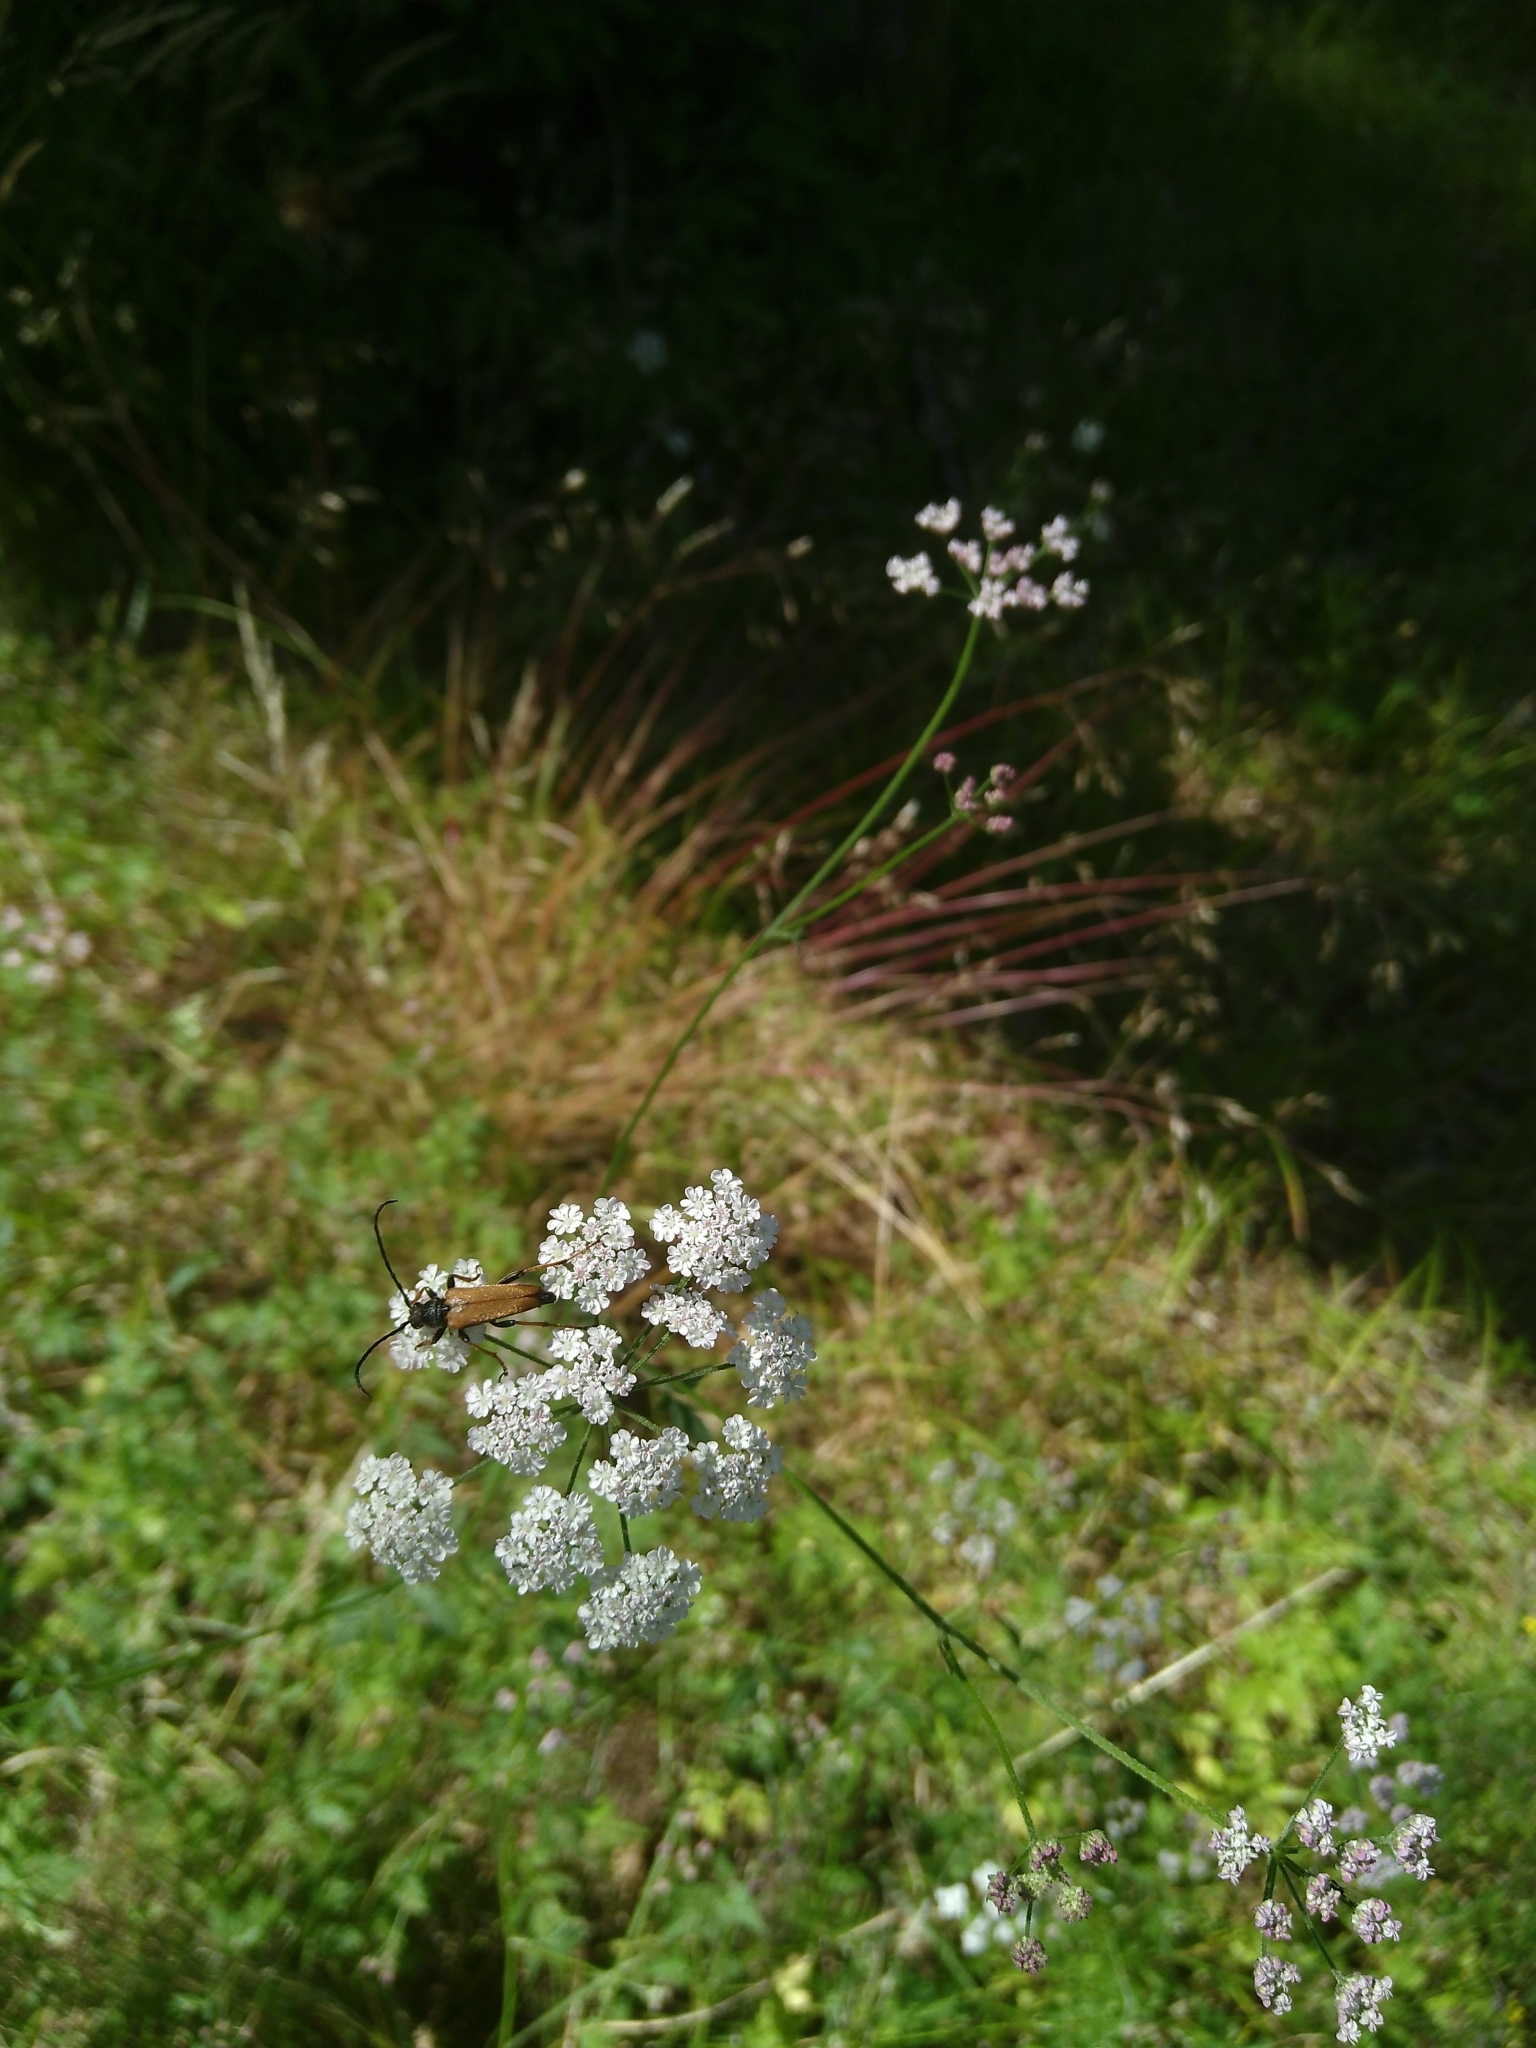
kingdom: Animalia
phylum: Arthropoda
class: Insecta
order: Coleoptera
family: Cerambycidae
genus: Stictoleptura
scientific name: Stictoleptura rubra
